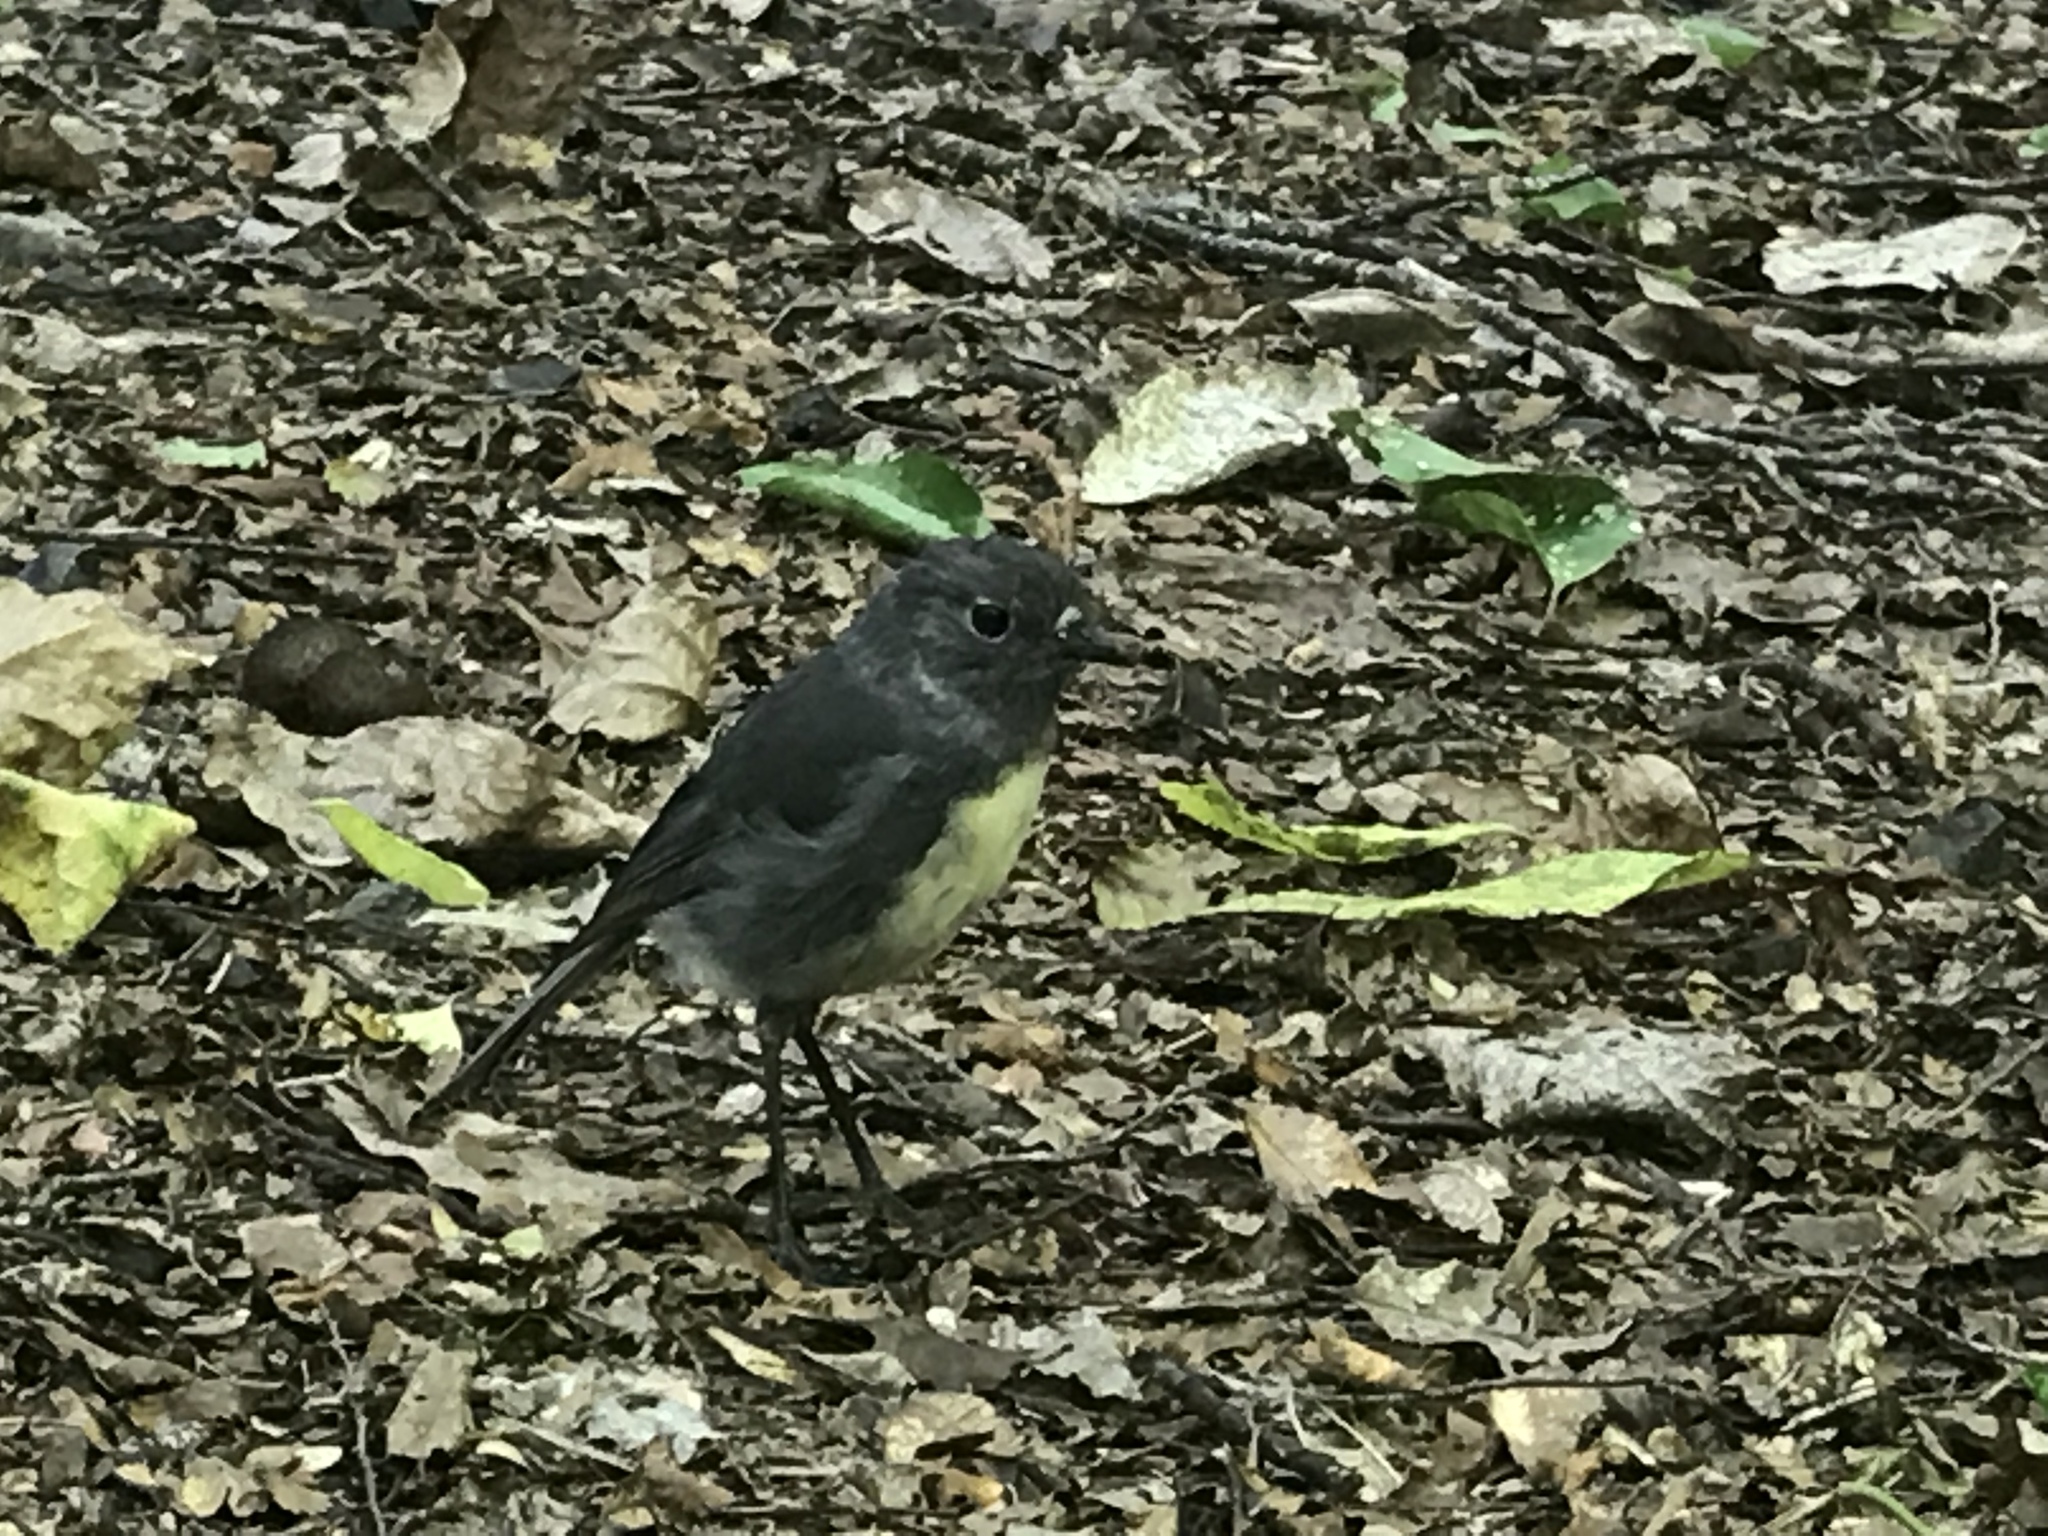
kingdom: Animalia
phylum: Chordata
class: Aves
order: Passeriformes
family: Petroicidae
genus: Petroica
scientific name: Petroica australis
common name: New zealand robin
